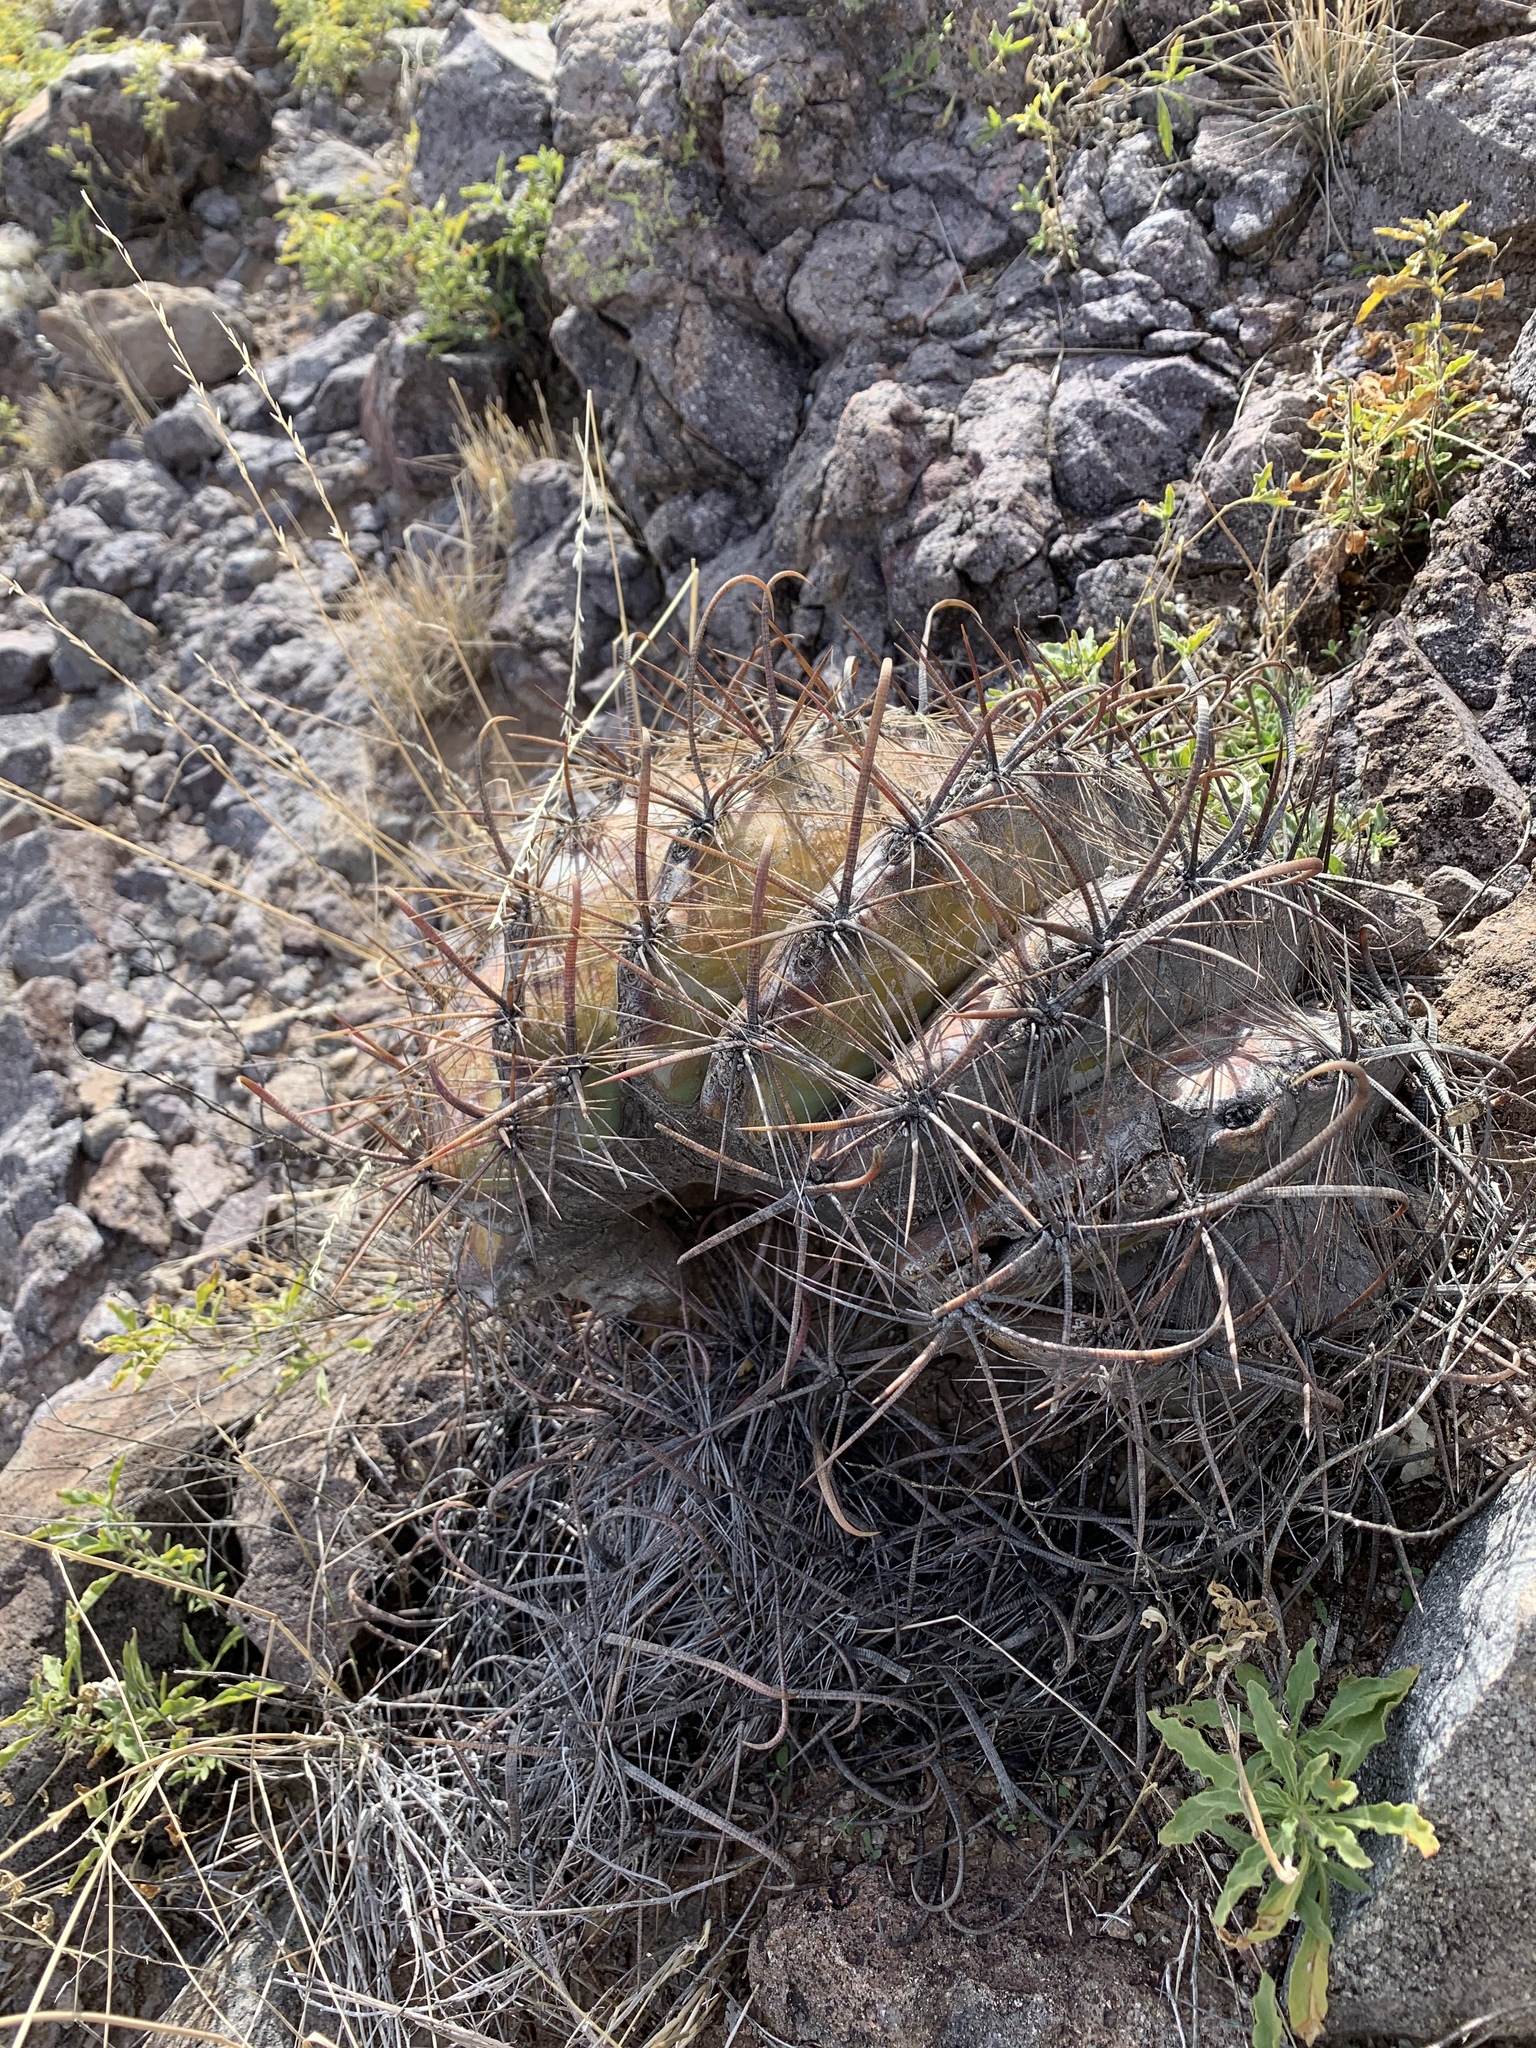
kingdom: Plantae
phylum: Tracheophyta
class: Magnoliopsida
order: Caryophyllales
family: Cactaceae
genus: Ferocactus
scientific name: Ferocactus wislizeni
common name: Candy barrel cactus
